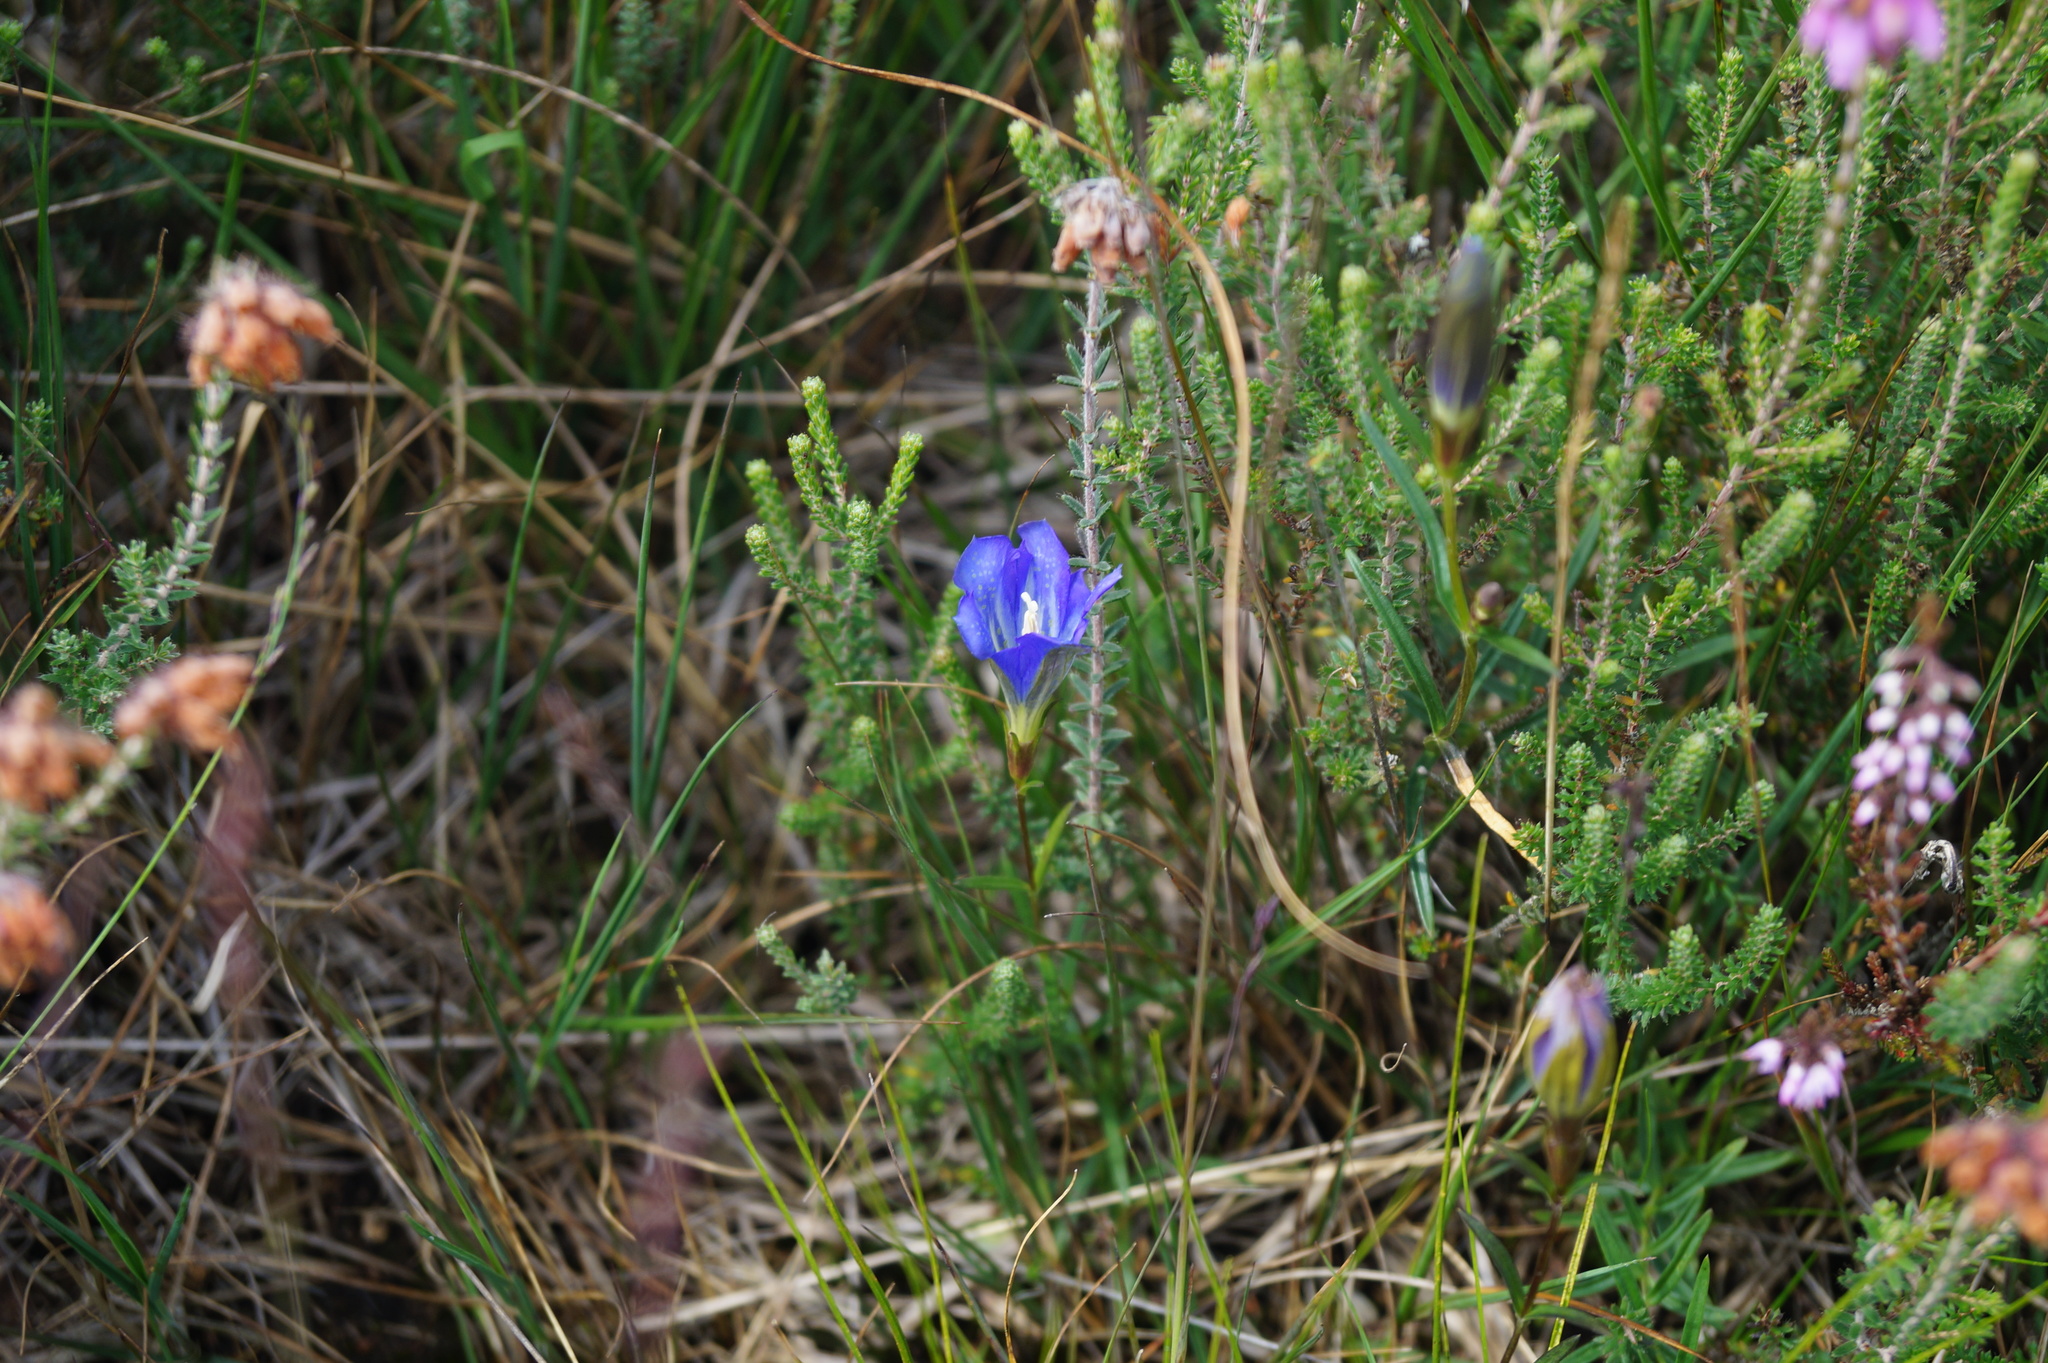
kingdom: Plantae
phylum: Tracheophyta
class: Magnoliopsida
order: Gentianales
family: Gentianaceae
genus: Gentiana
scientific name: Gentiana pneumonanthe
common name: Marsh gentian
